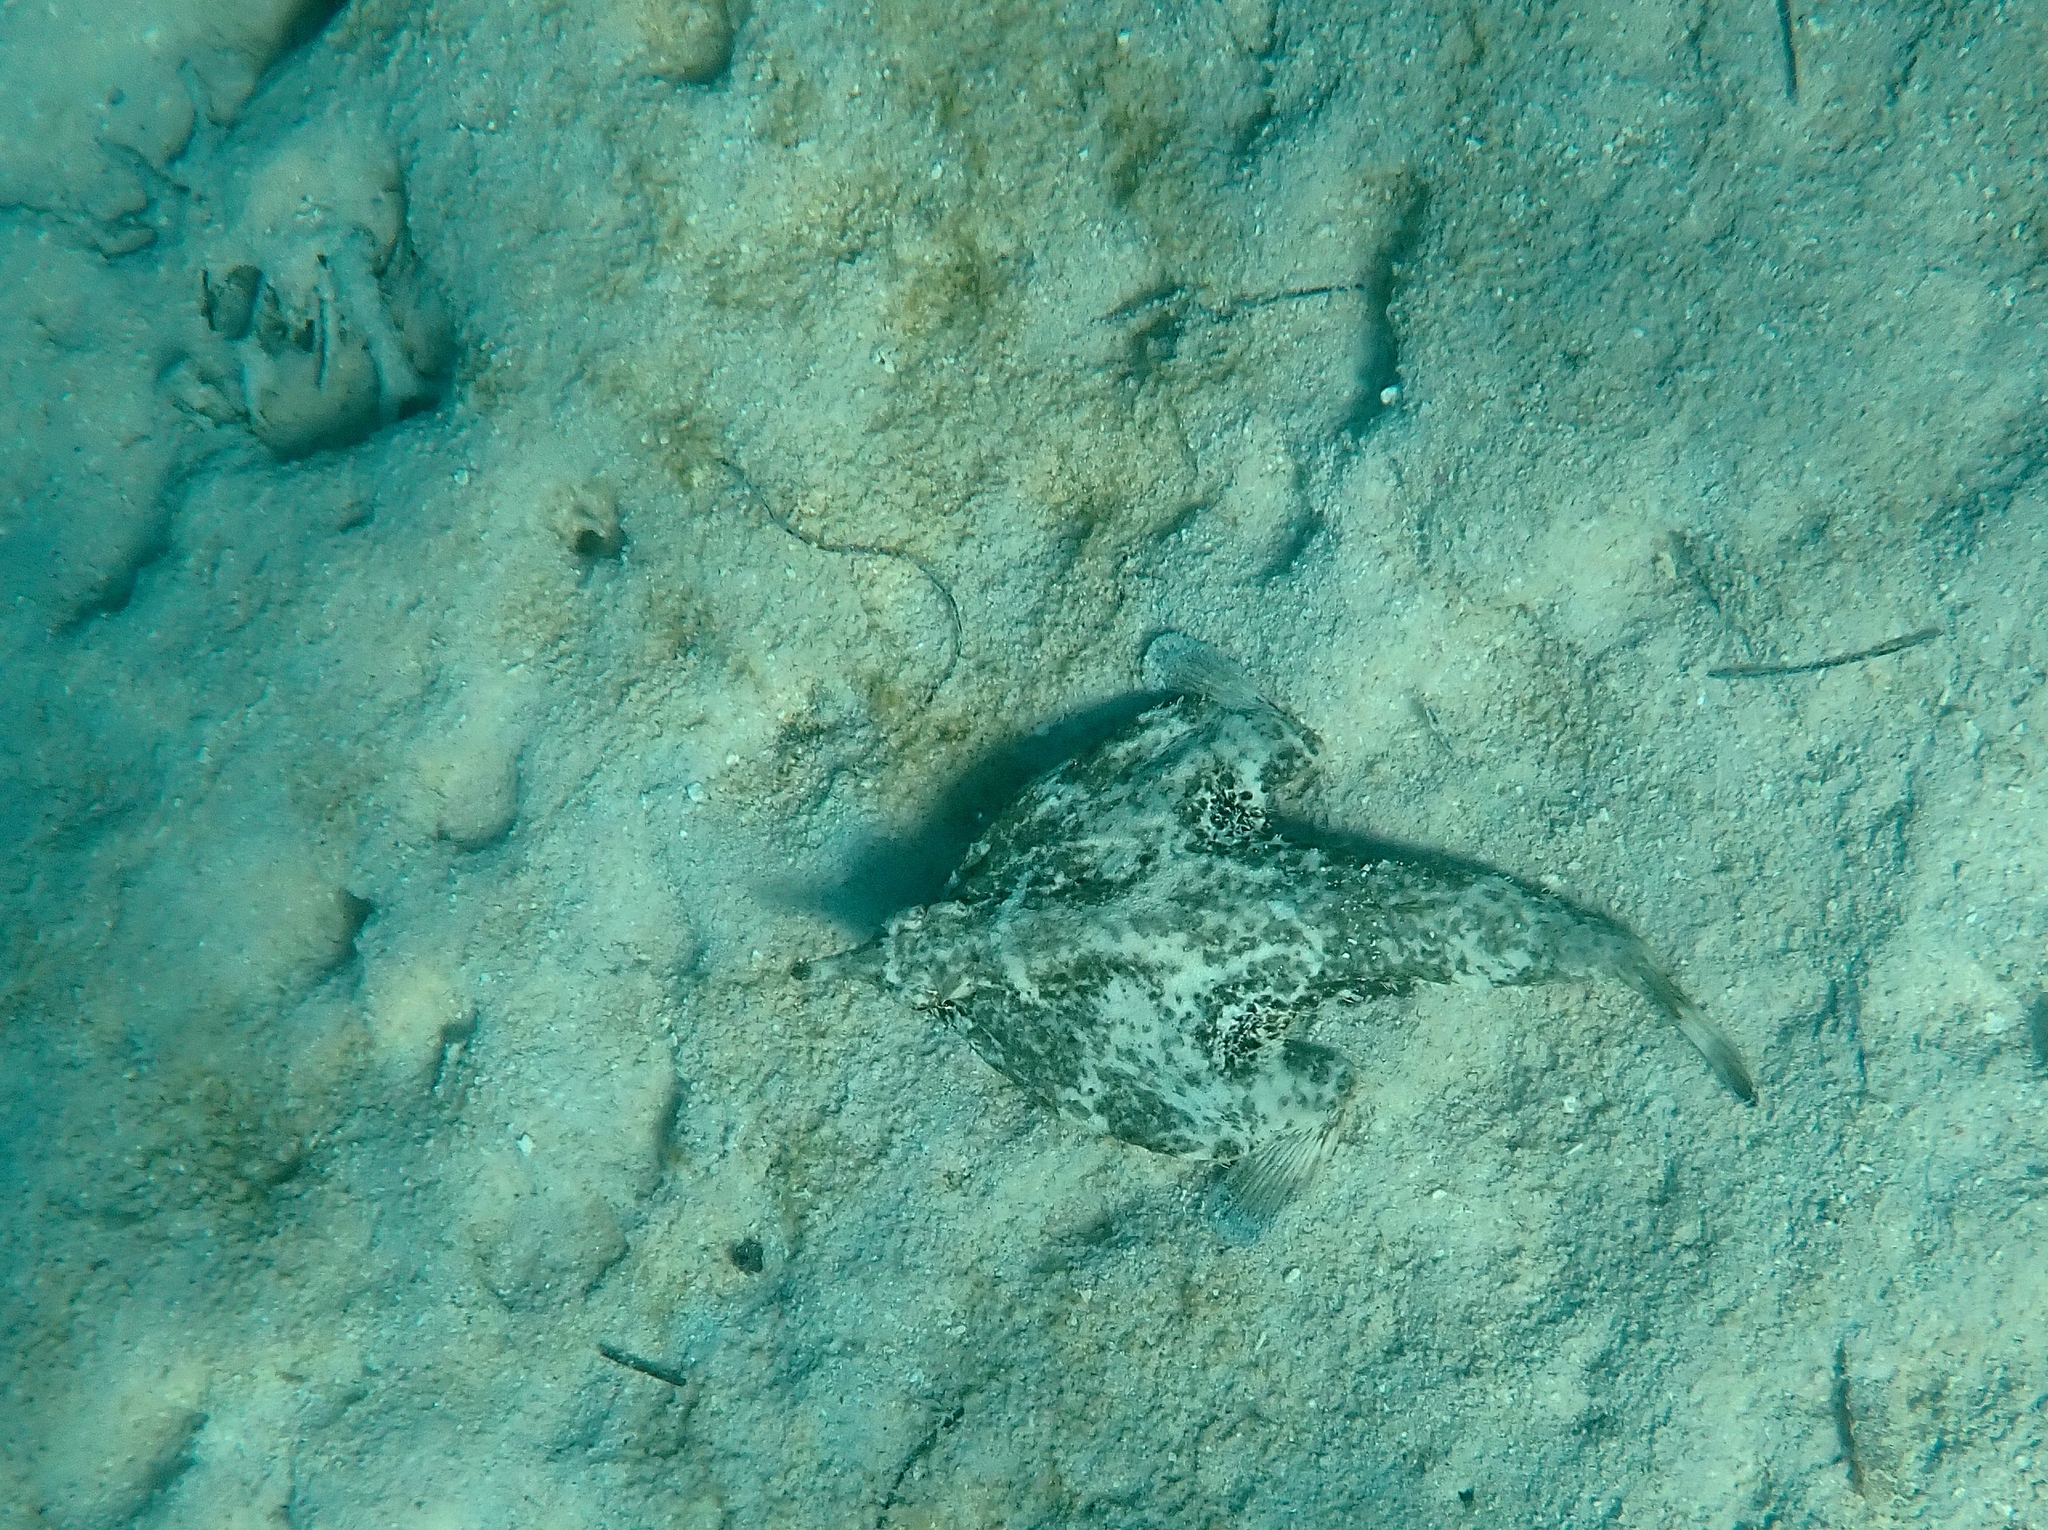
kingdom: Animalia
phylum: Chordata
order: Lophiiformes
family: Ogcocephalidae
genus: Ogcocephalus
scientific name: Ogcocephalus nasutus
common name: Shortnose batfish
